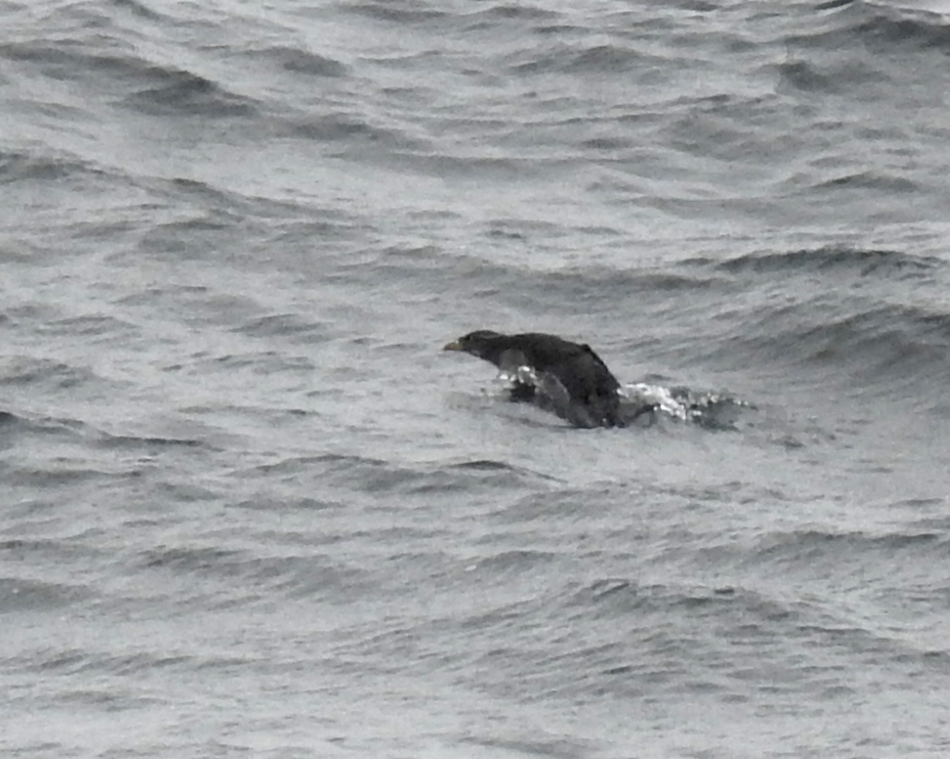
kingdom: Animalia
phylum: Chordata
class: Aves
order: Charadriiformes
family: Alcidae
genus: Cerorhinca
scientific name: Cerorhinca monocerata
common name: Rhinoceros auklet
